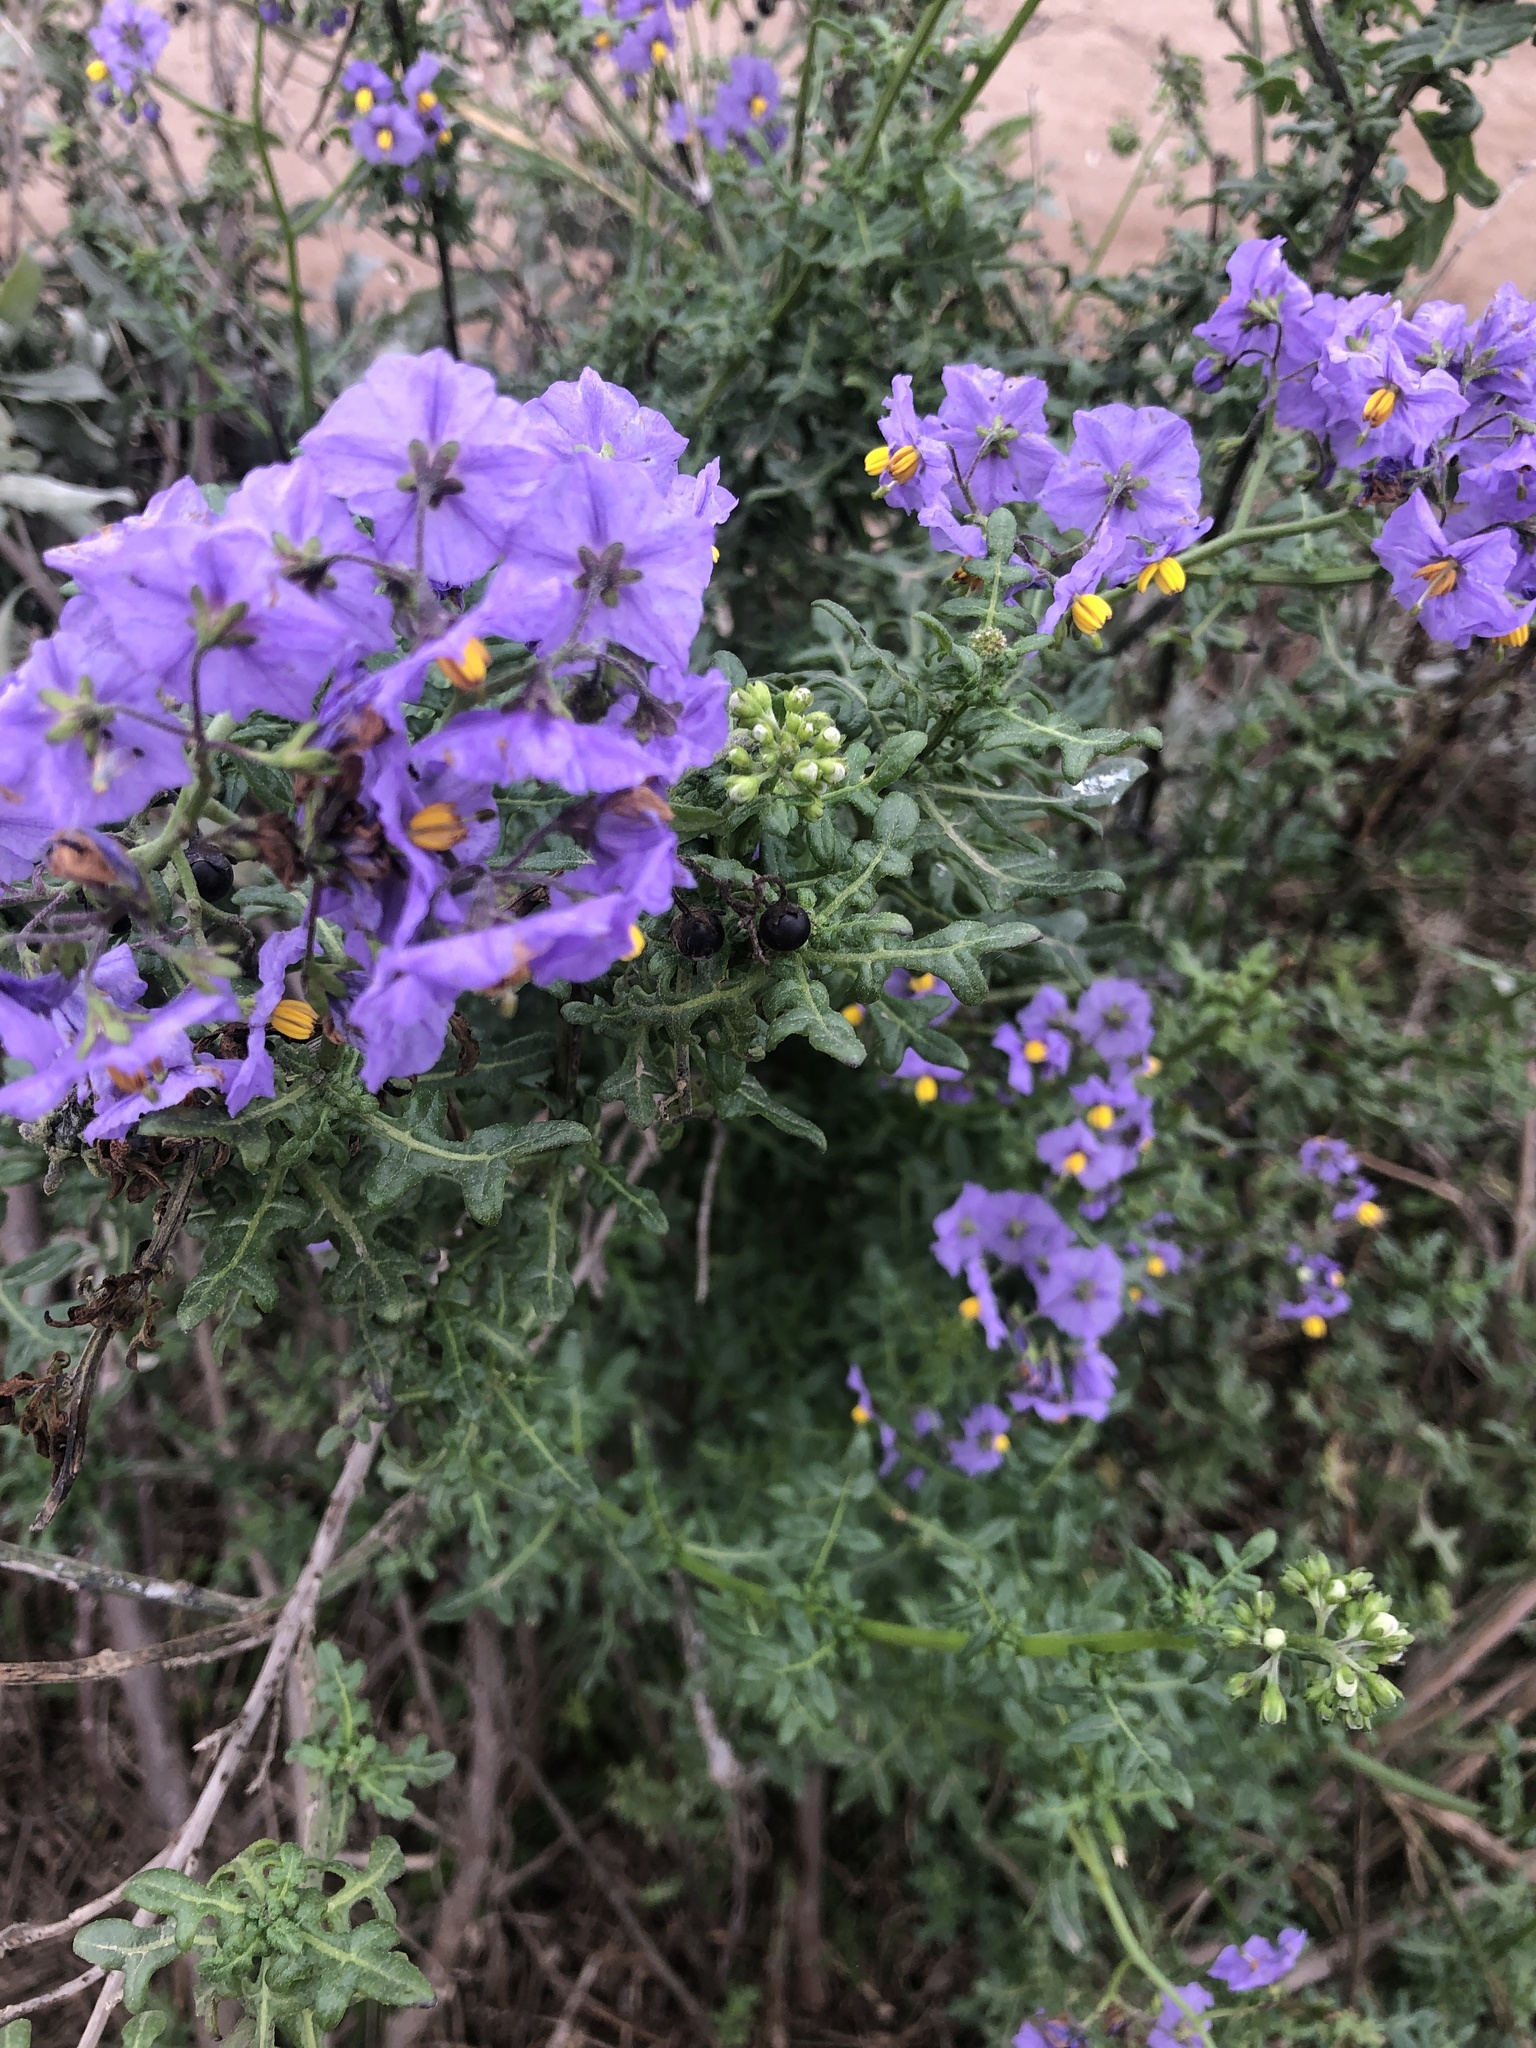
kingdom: Plantae
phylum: Tracheophyta
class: Magnoliopsida
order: Solanales
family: Solanaceae
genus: Solanum
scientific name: Solanum pinnatum
